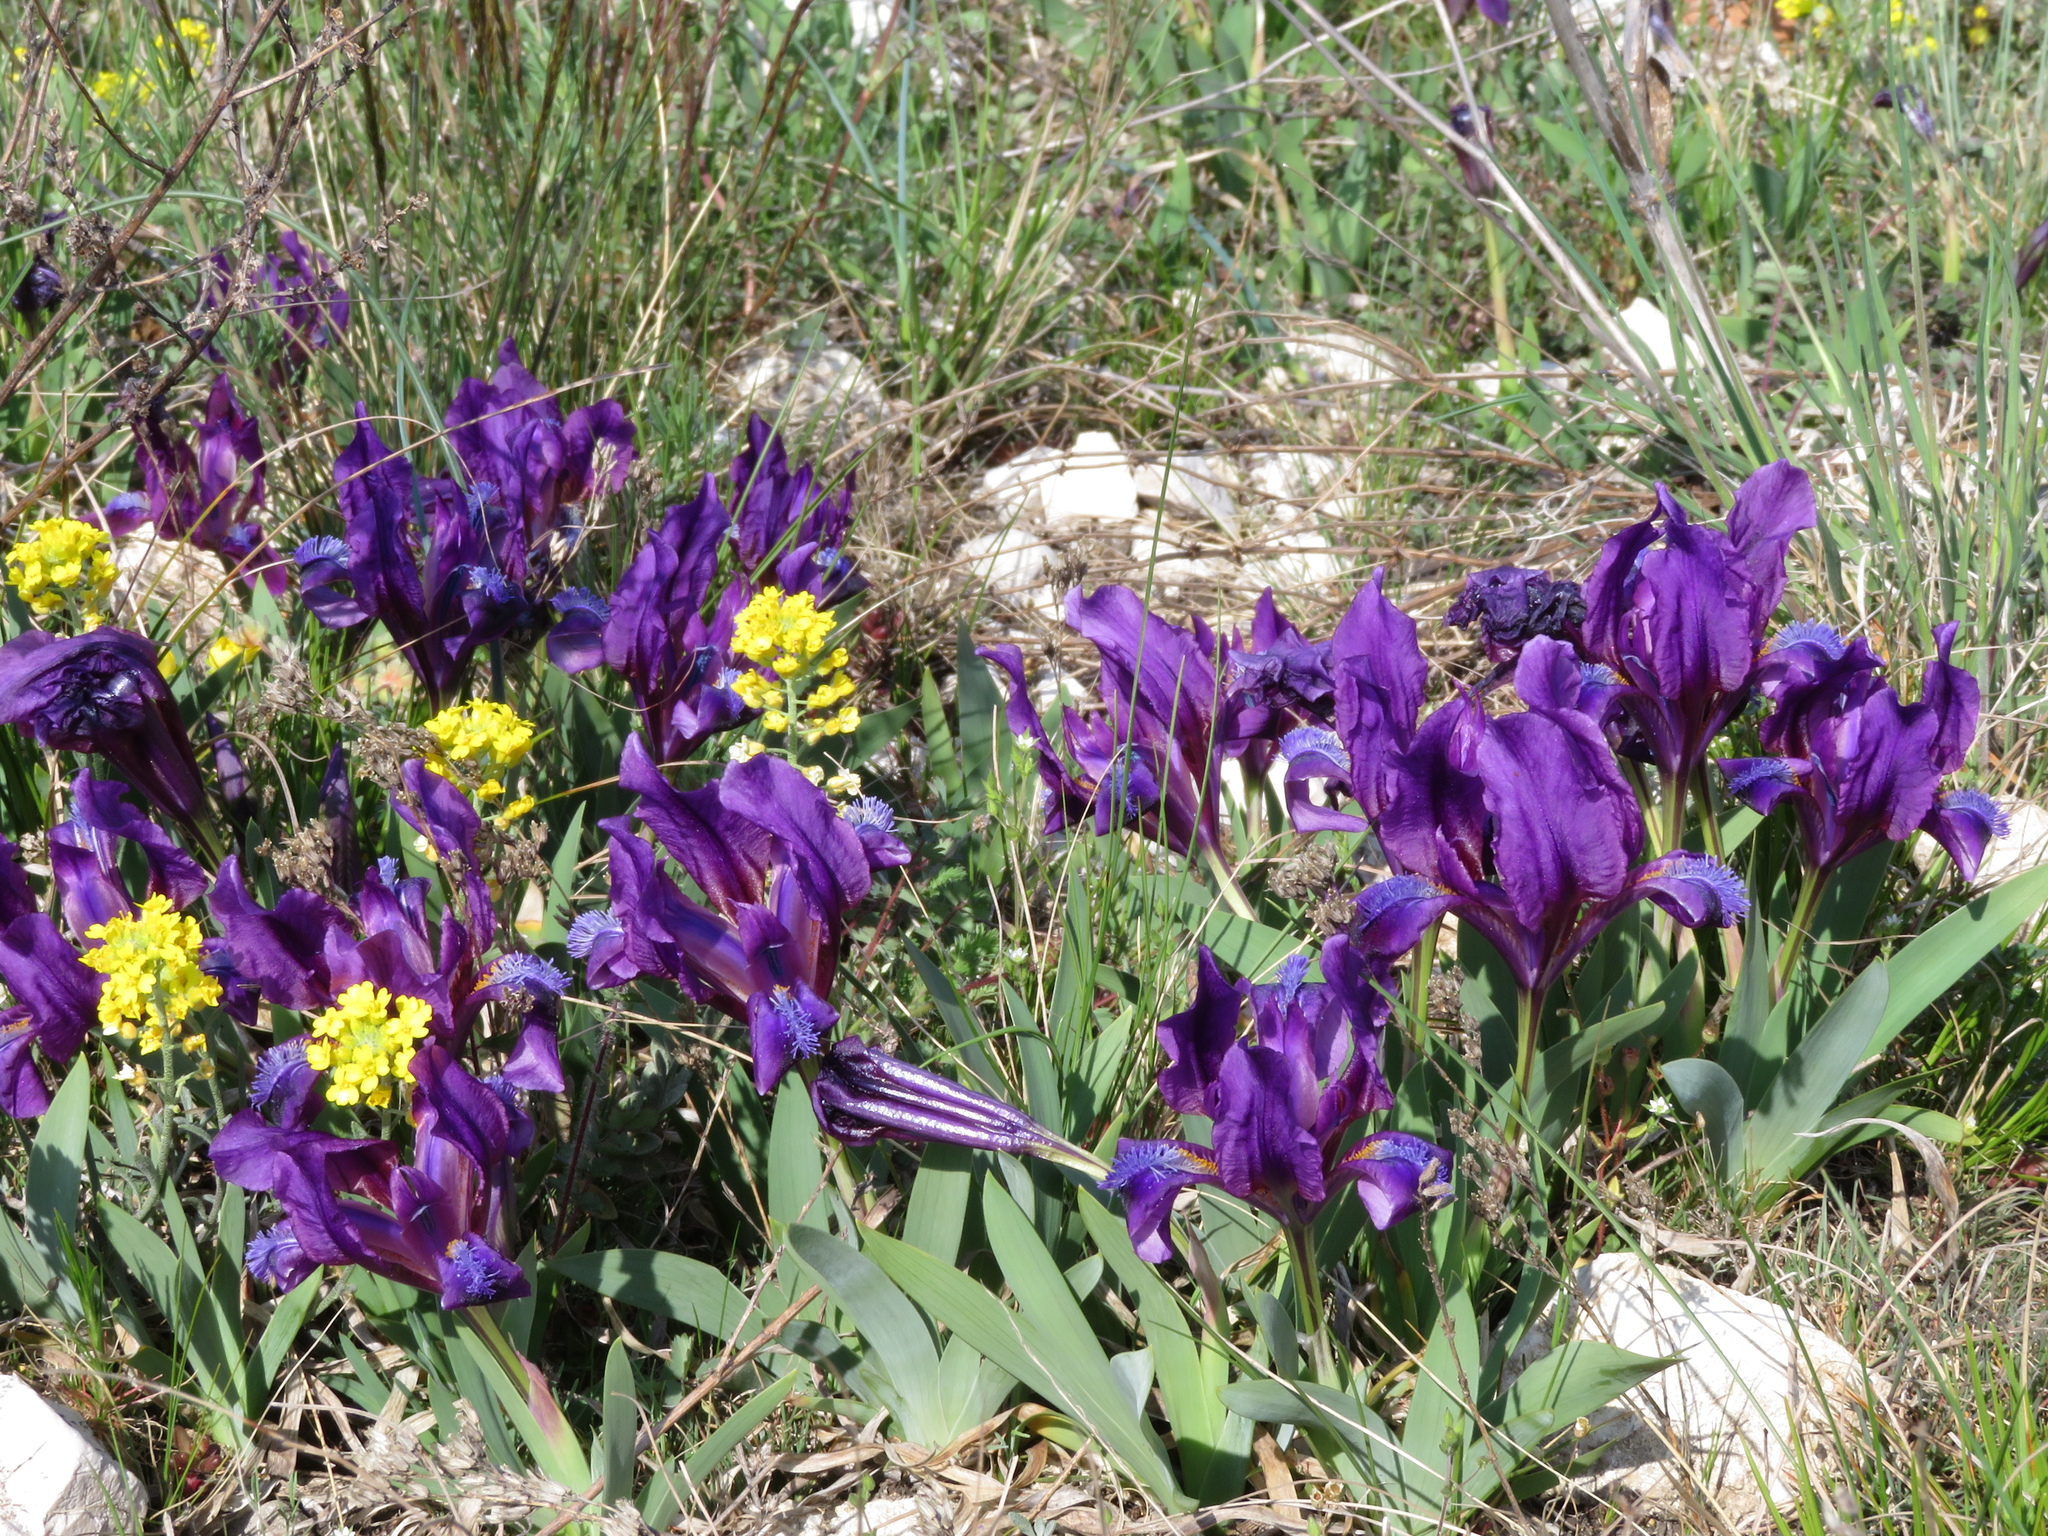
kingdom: Plantae
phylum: Tracheophyta
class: Liliopsida
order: Asparagales
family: Iridaceae
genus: Iris
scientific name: Iris pumila
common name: Dwarf iris
